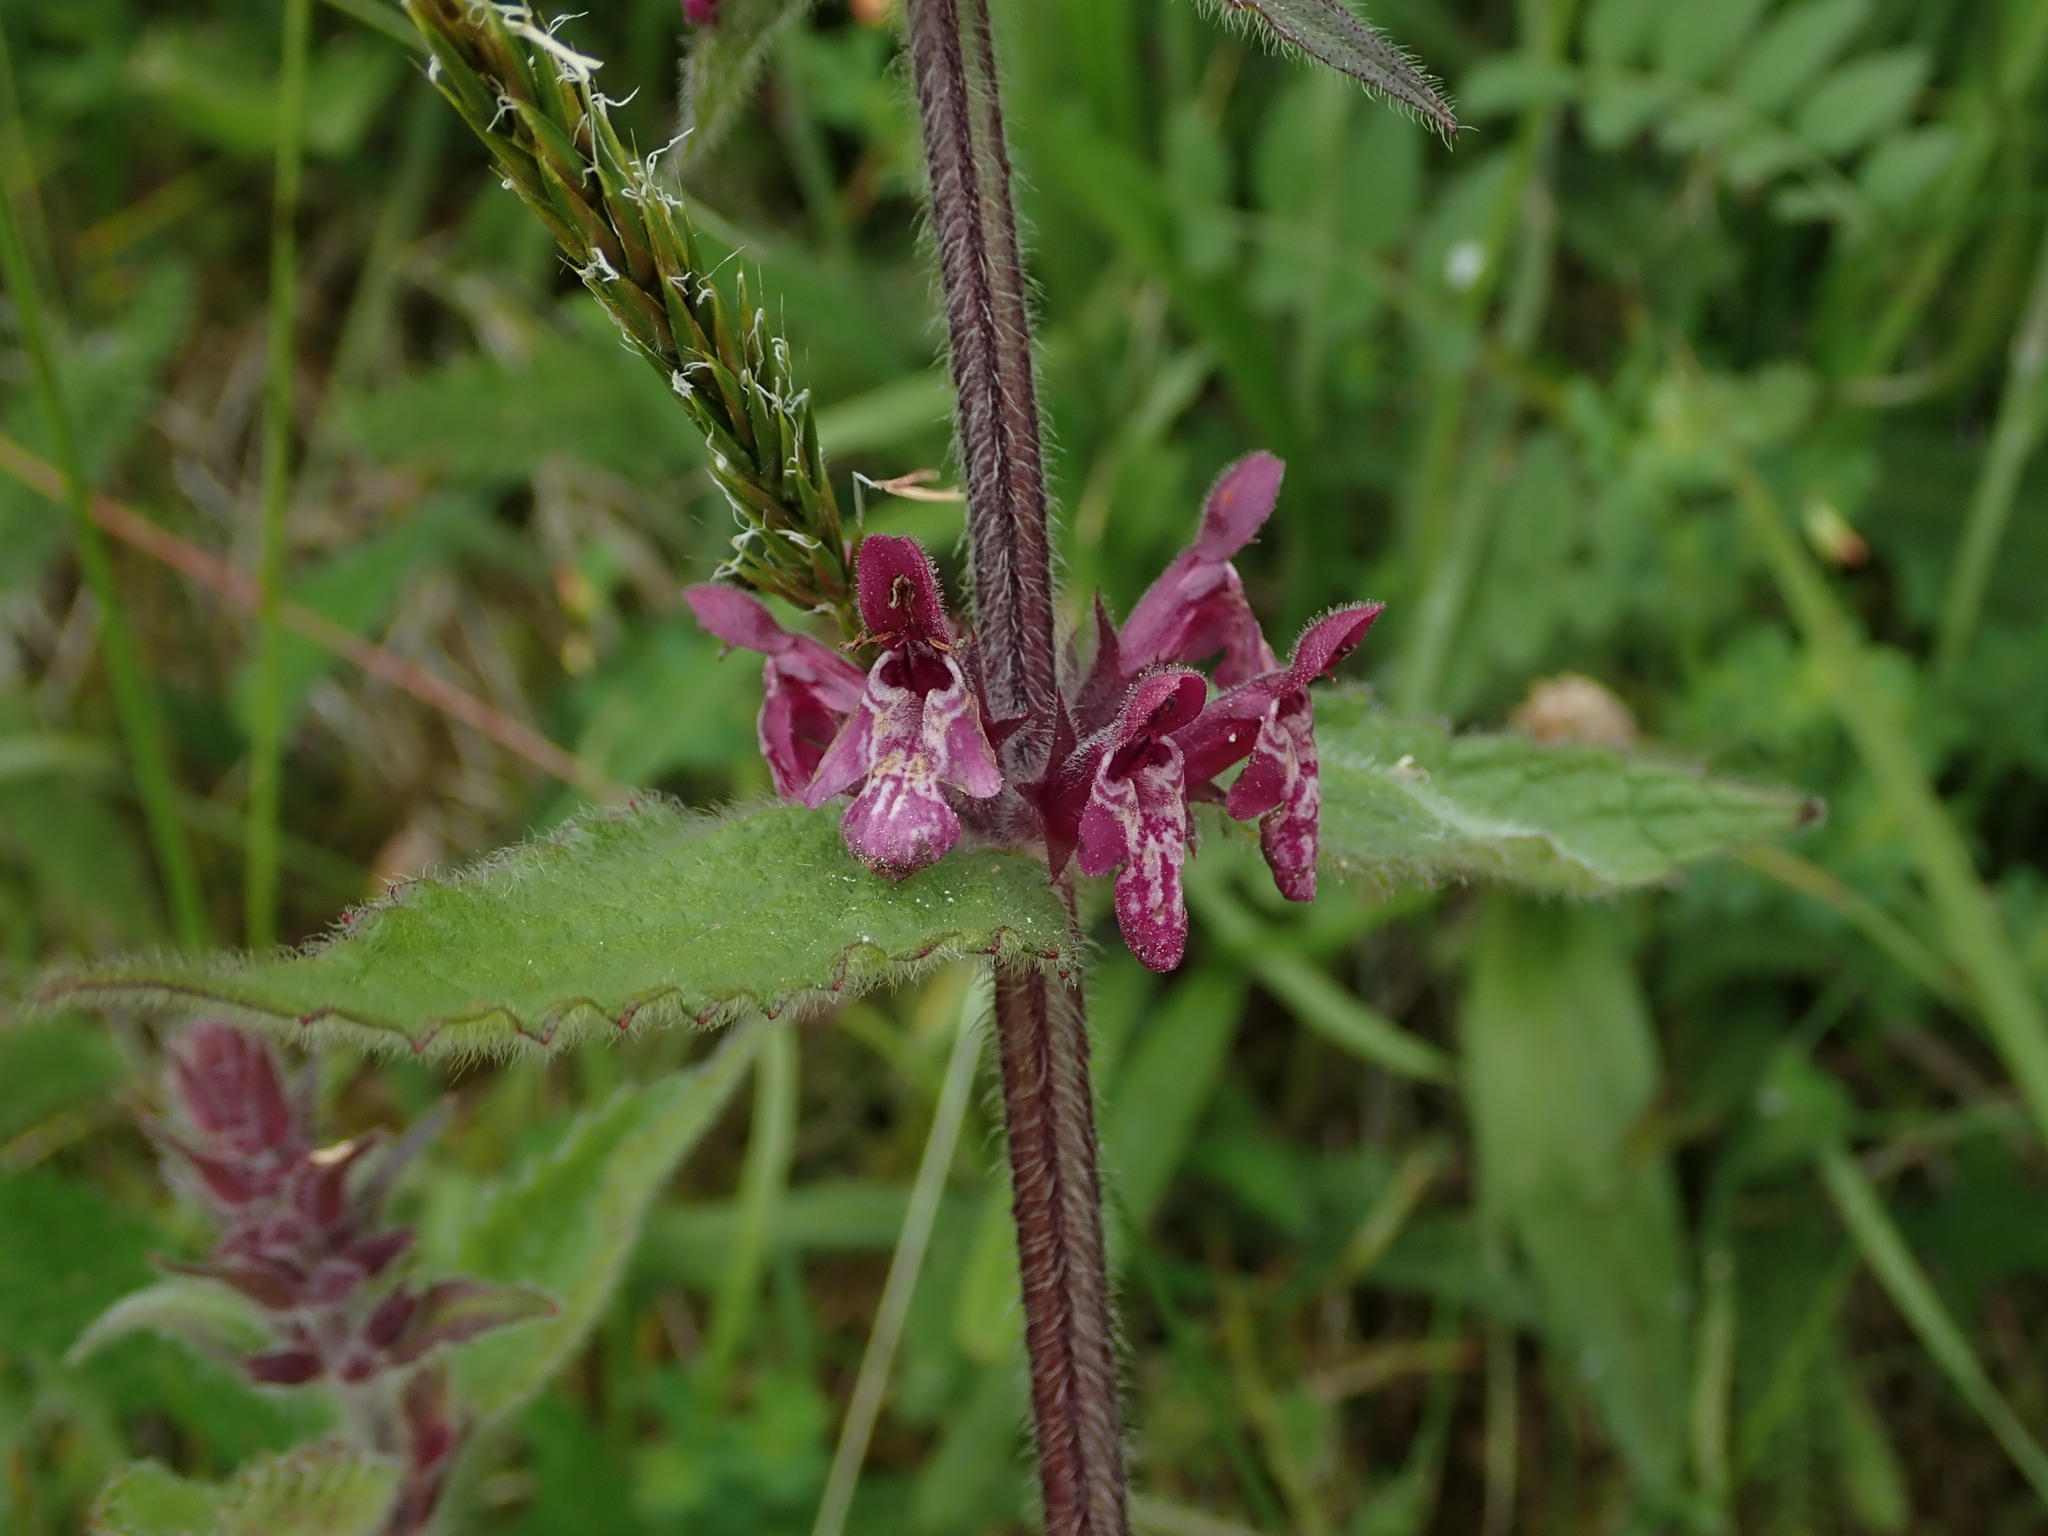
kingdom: Plantae
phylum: Tracheophyta
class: Magnoliopsida
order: Lamiales
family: Lamiaceae
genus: Stachys
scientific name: Stachys sylvatica
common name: Hedge woundwort
